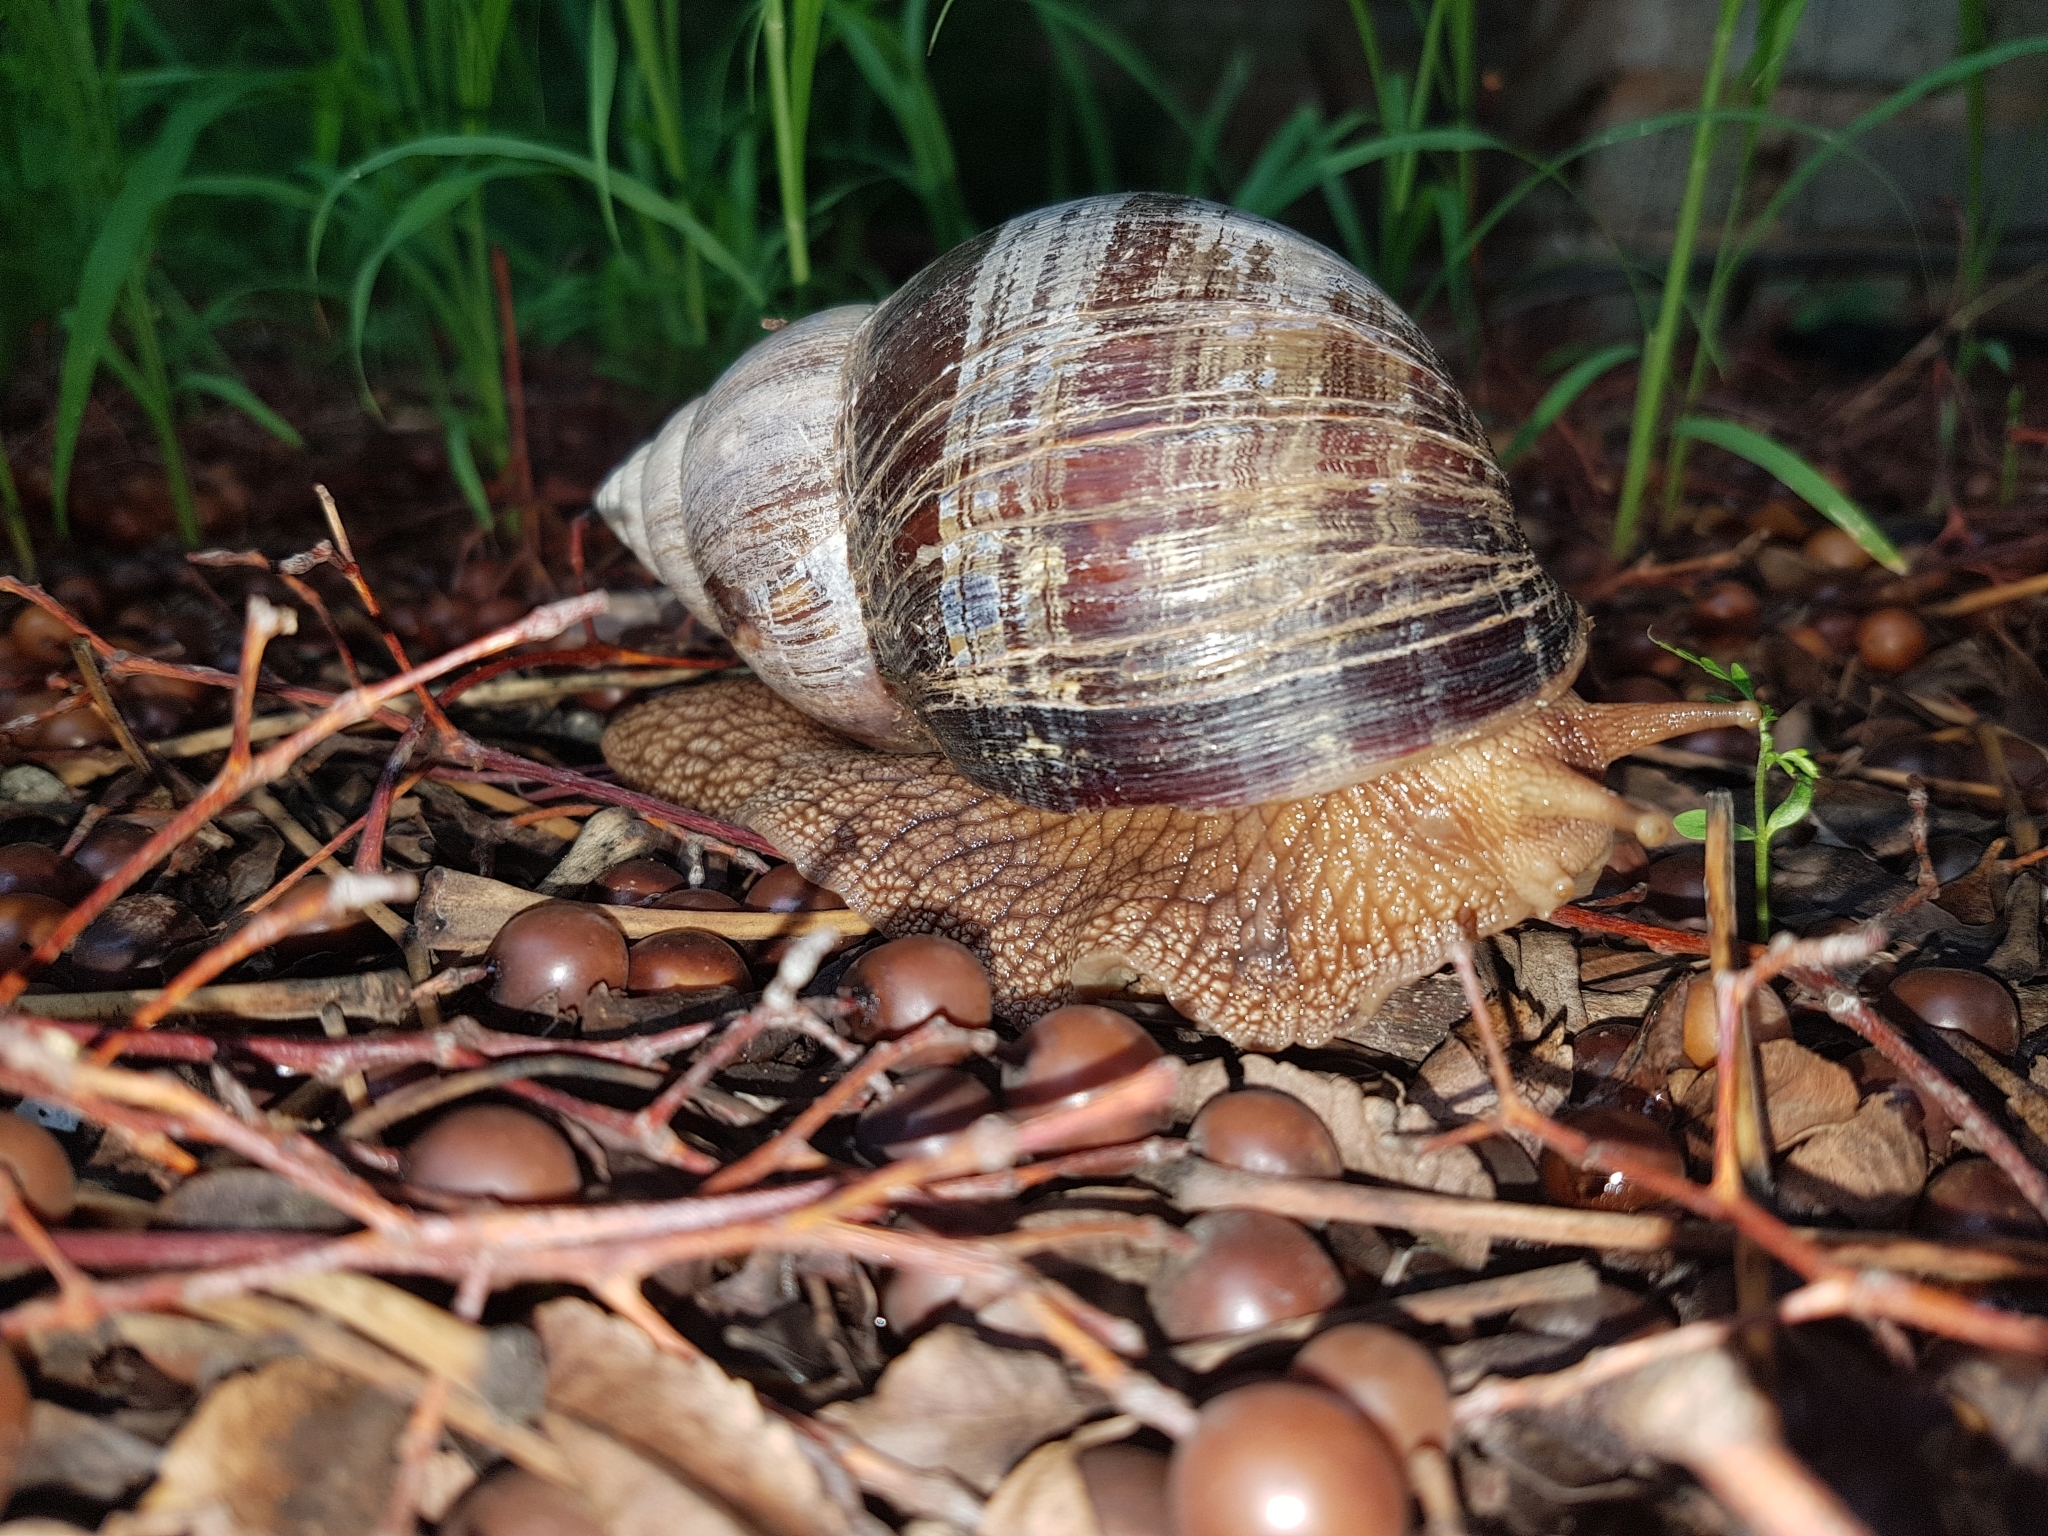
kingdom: Animalia
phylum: Mollusca
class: Gastropoda
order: Stylommatophora
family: Achatinidae
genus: Lissachatina
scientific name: Lissachatina immaculata
